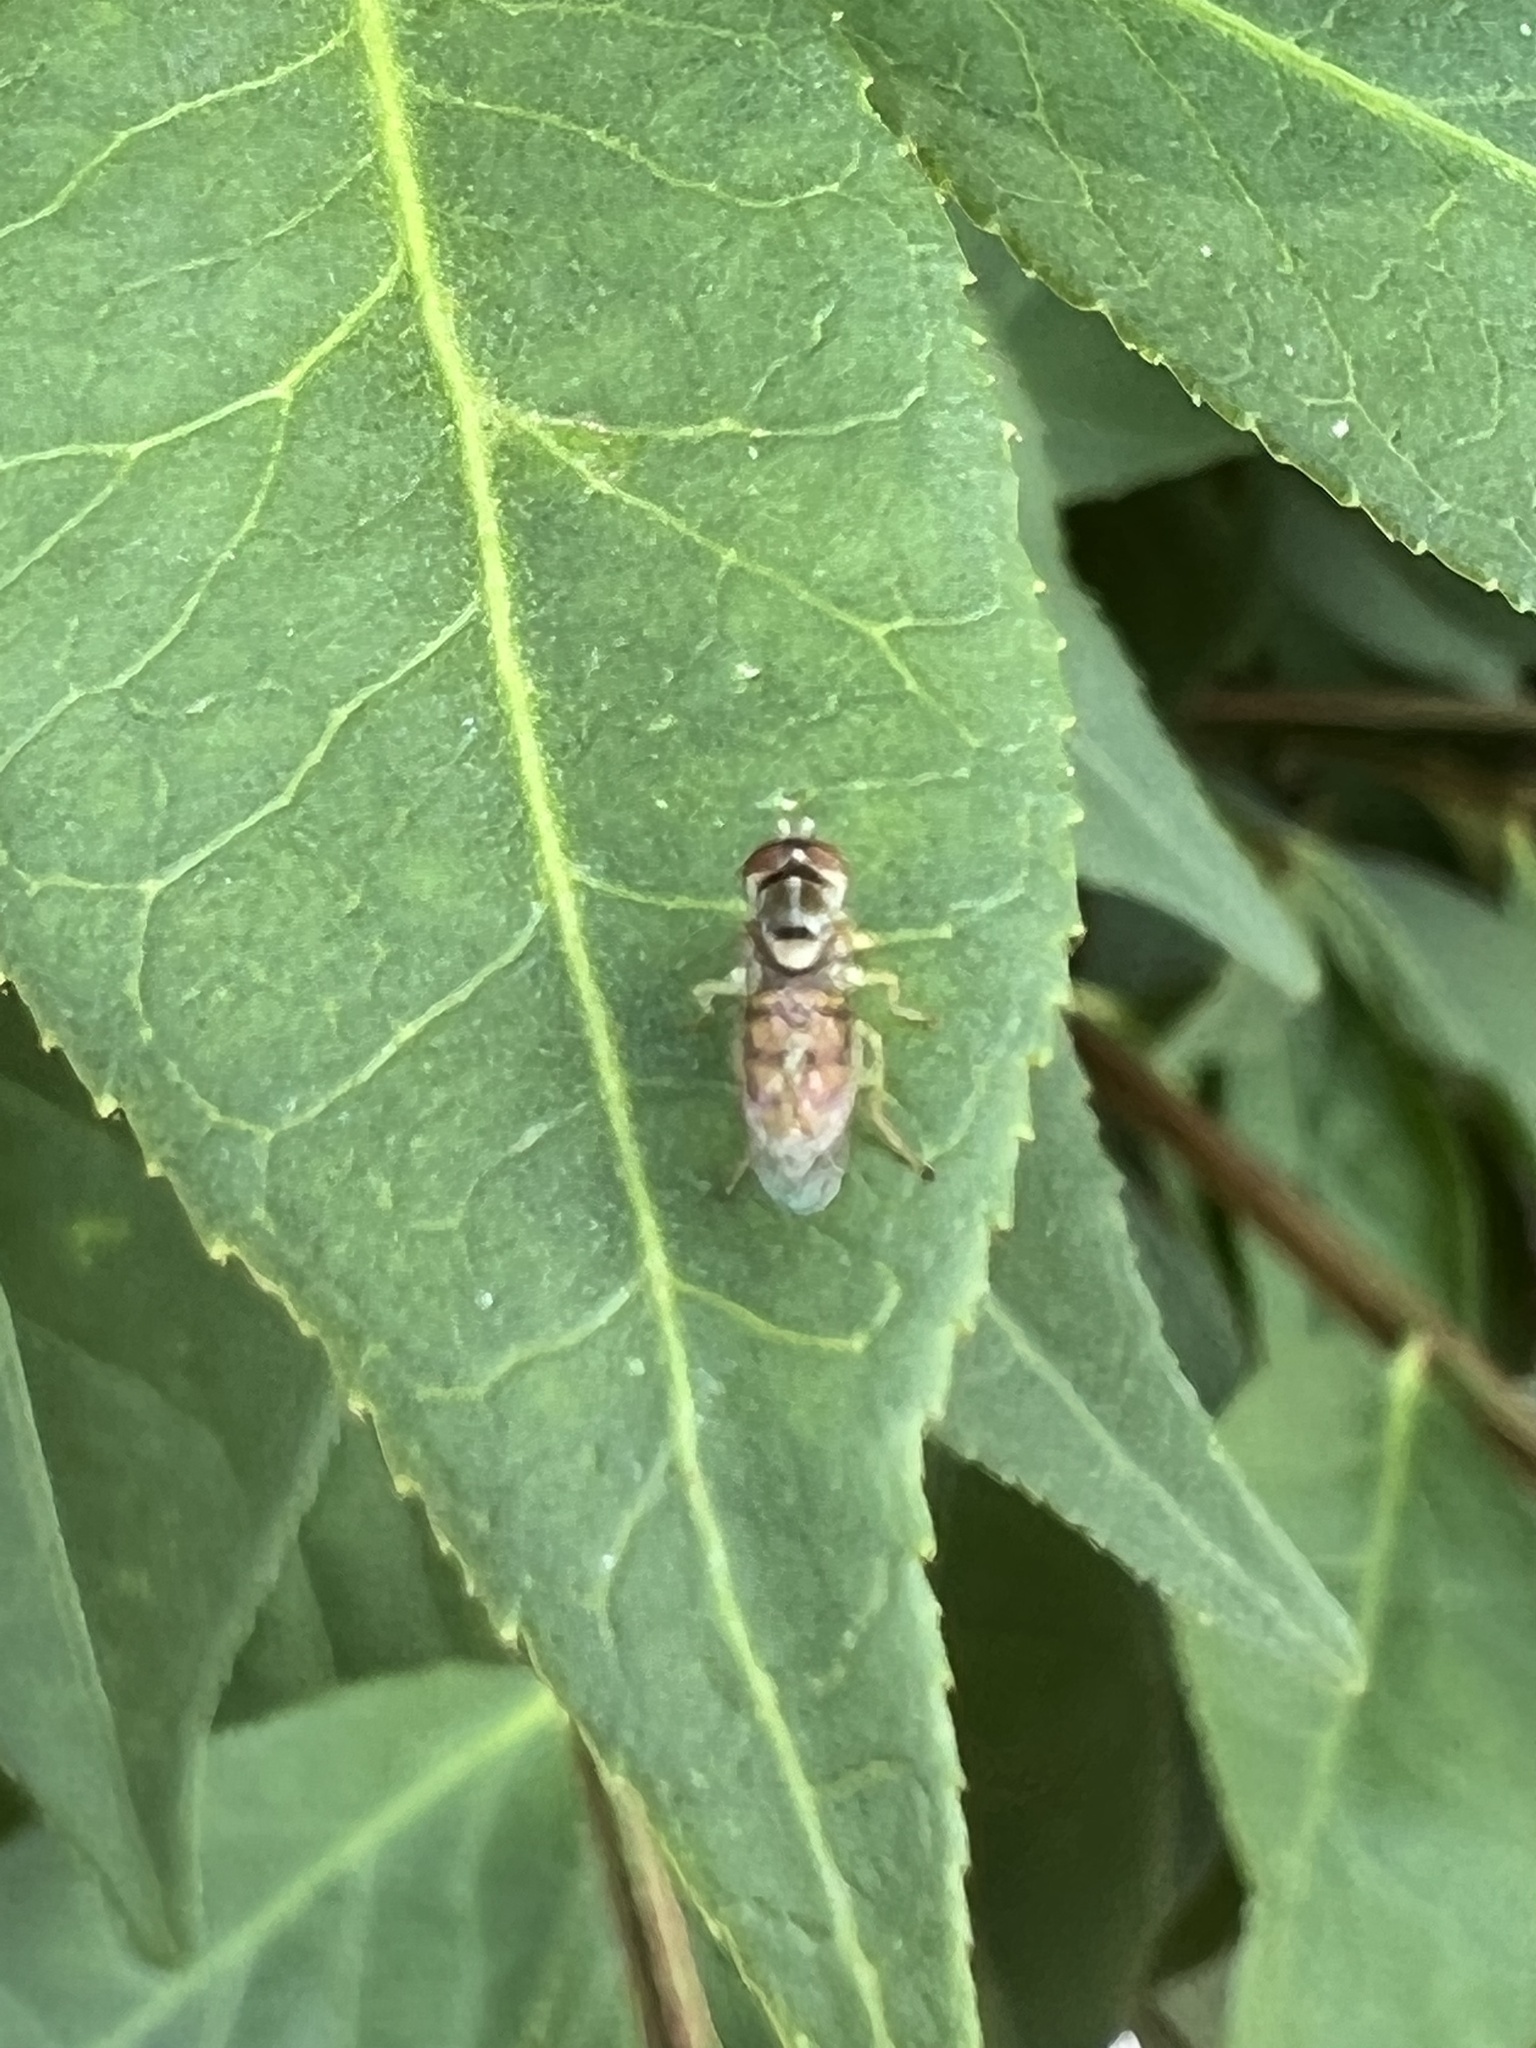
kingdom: Animalia
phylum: Arthropoda
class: Insecta
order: Diptera
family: Syrphidae
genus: Toxomerus
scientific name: Toxomerus marginatus
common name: Syrphid fly
